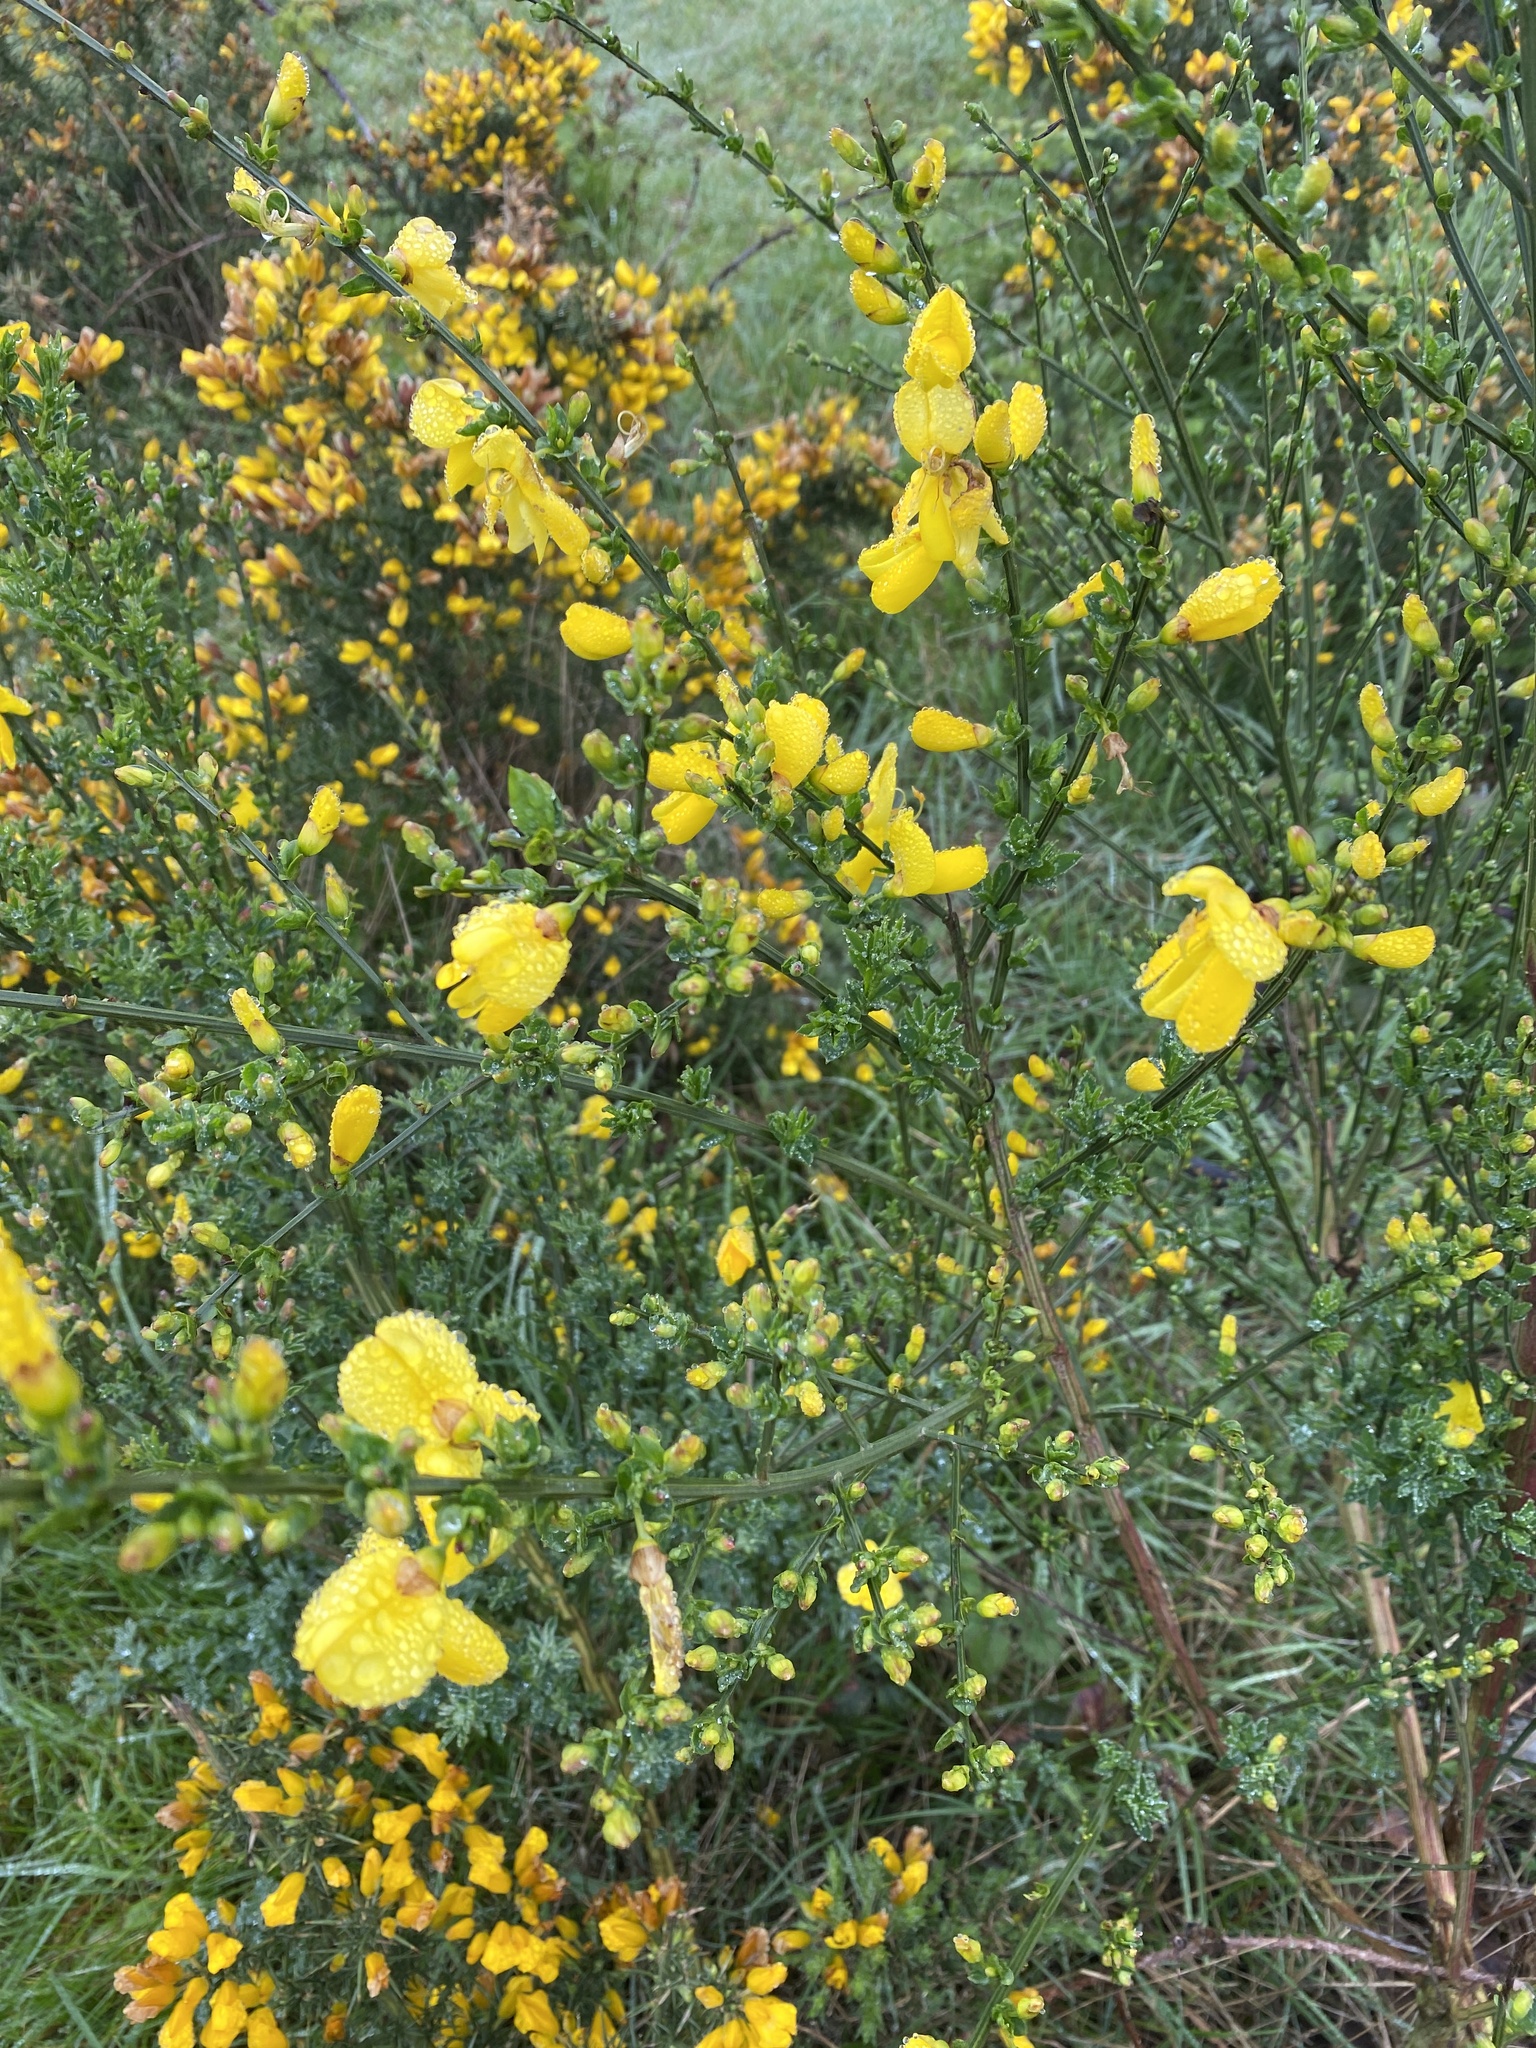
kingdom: Plantae
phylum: Tracheophyta
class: Magnoliopsida
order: Fabales
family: Fabaceae
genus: Cytisus
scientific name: Cytisus scoparius
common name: Scotch broom
